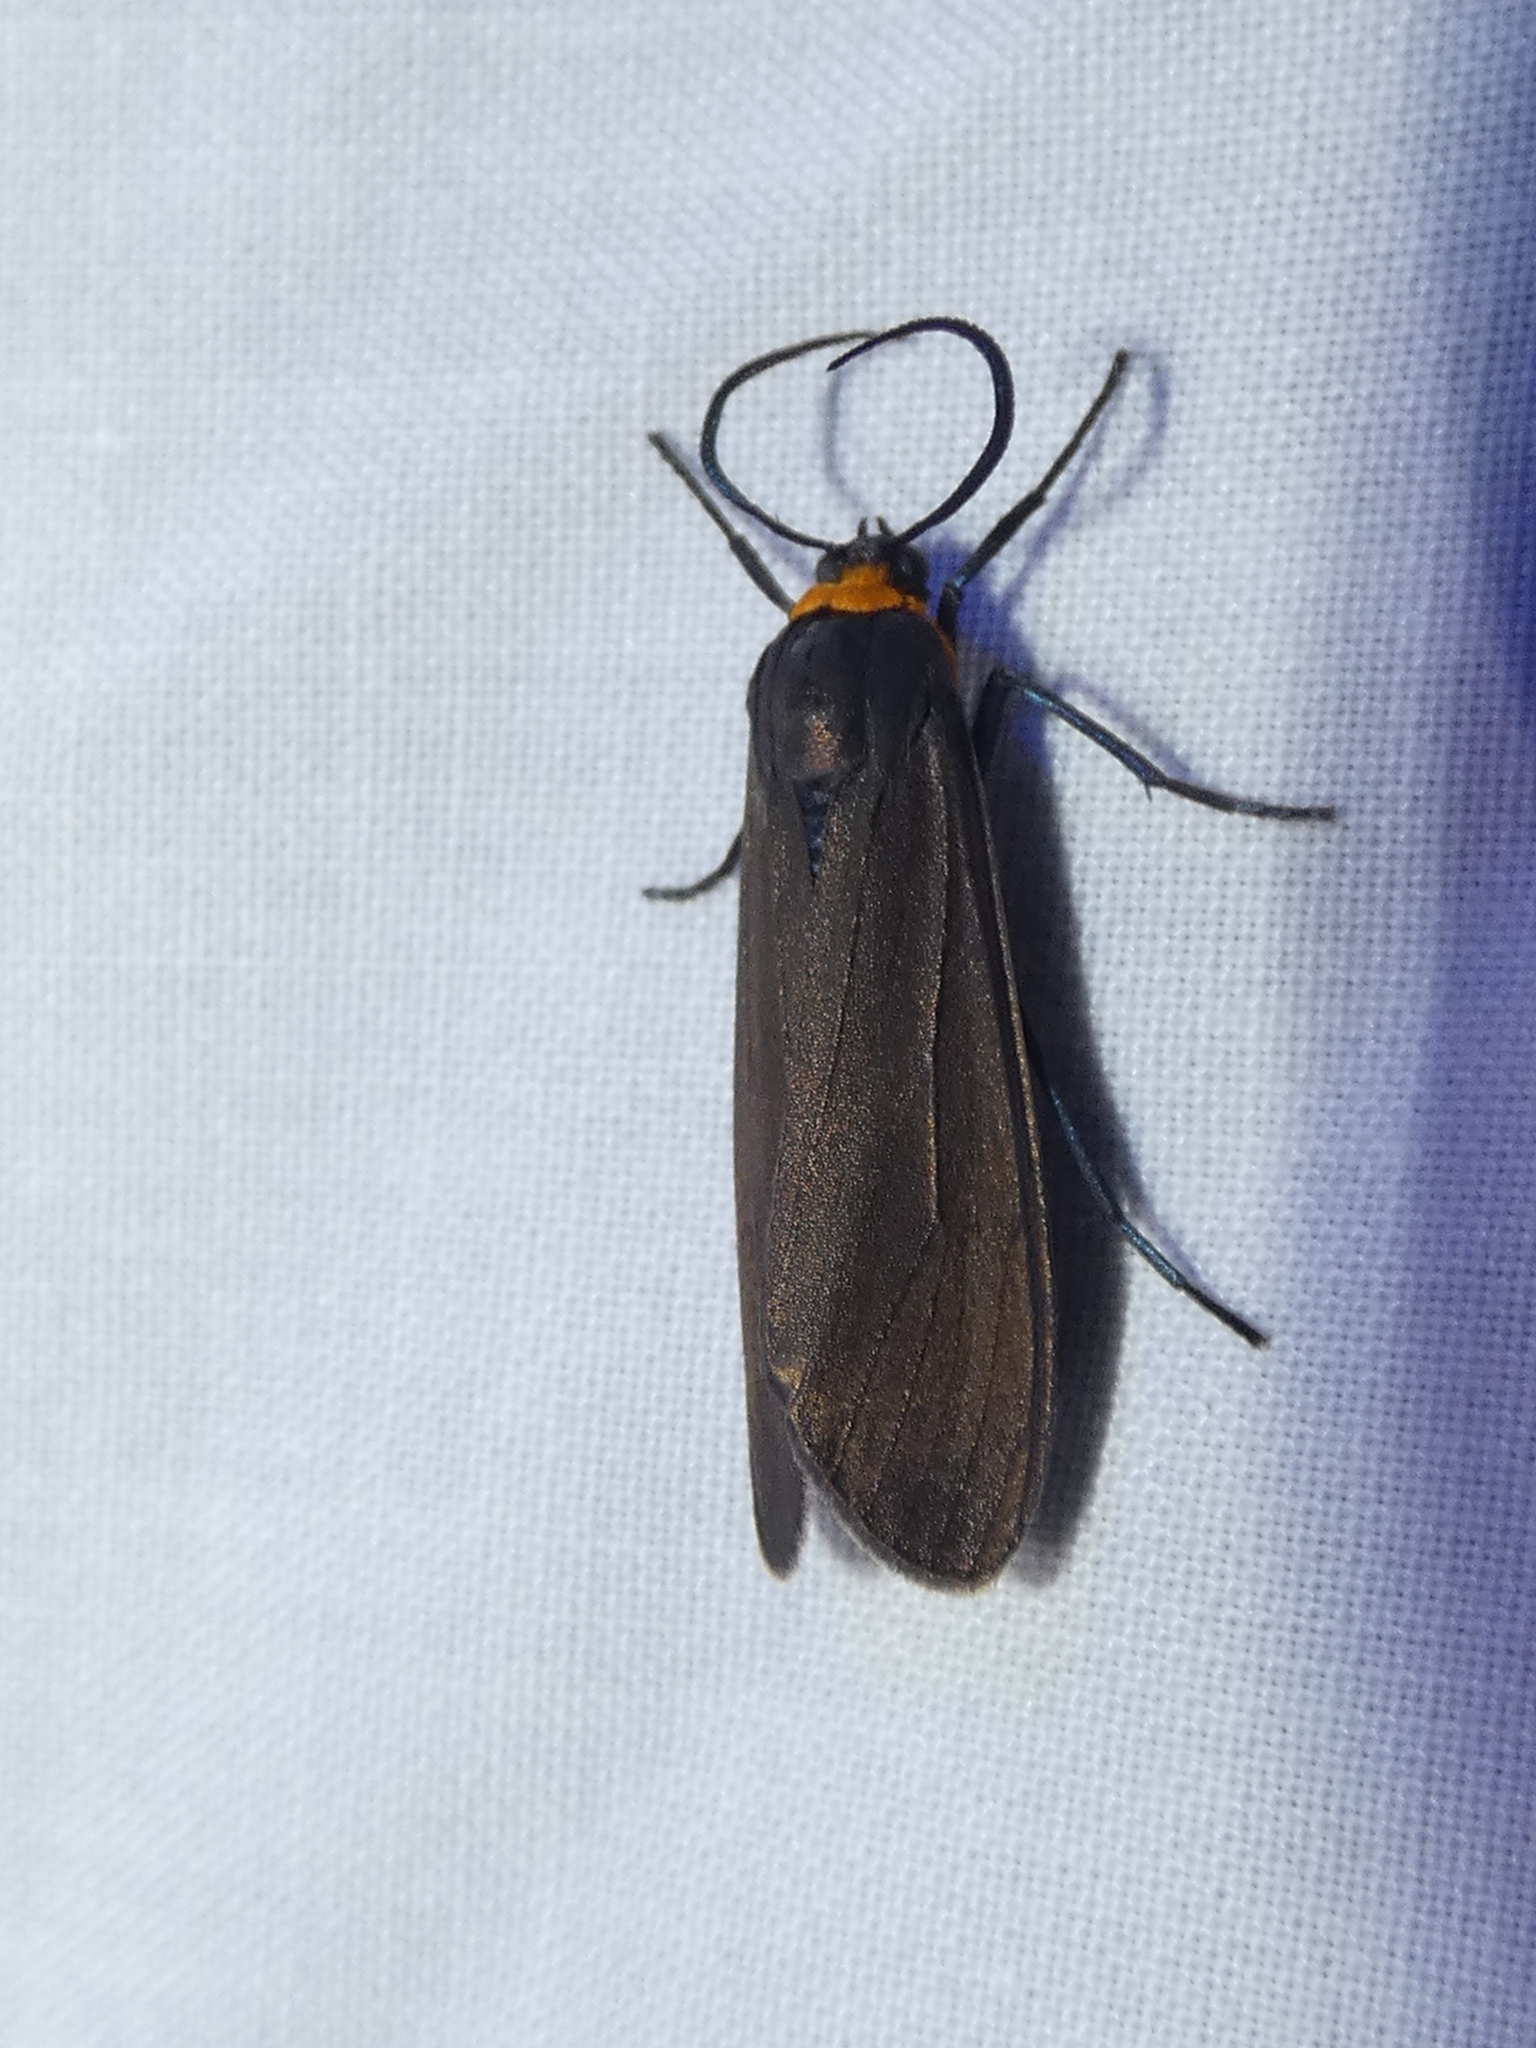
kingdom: Animalia
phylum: Arthropoda
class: Insecta
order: Lepidoptera
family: Erebidae
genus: Cisseps
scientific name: Cisseps fulvicollis
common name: Yellow-collared scape moth
